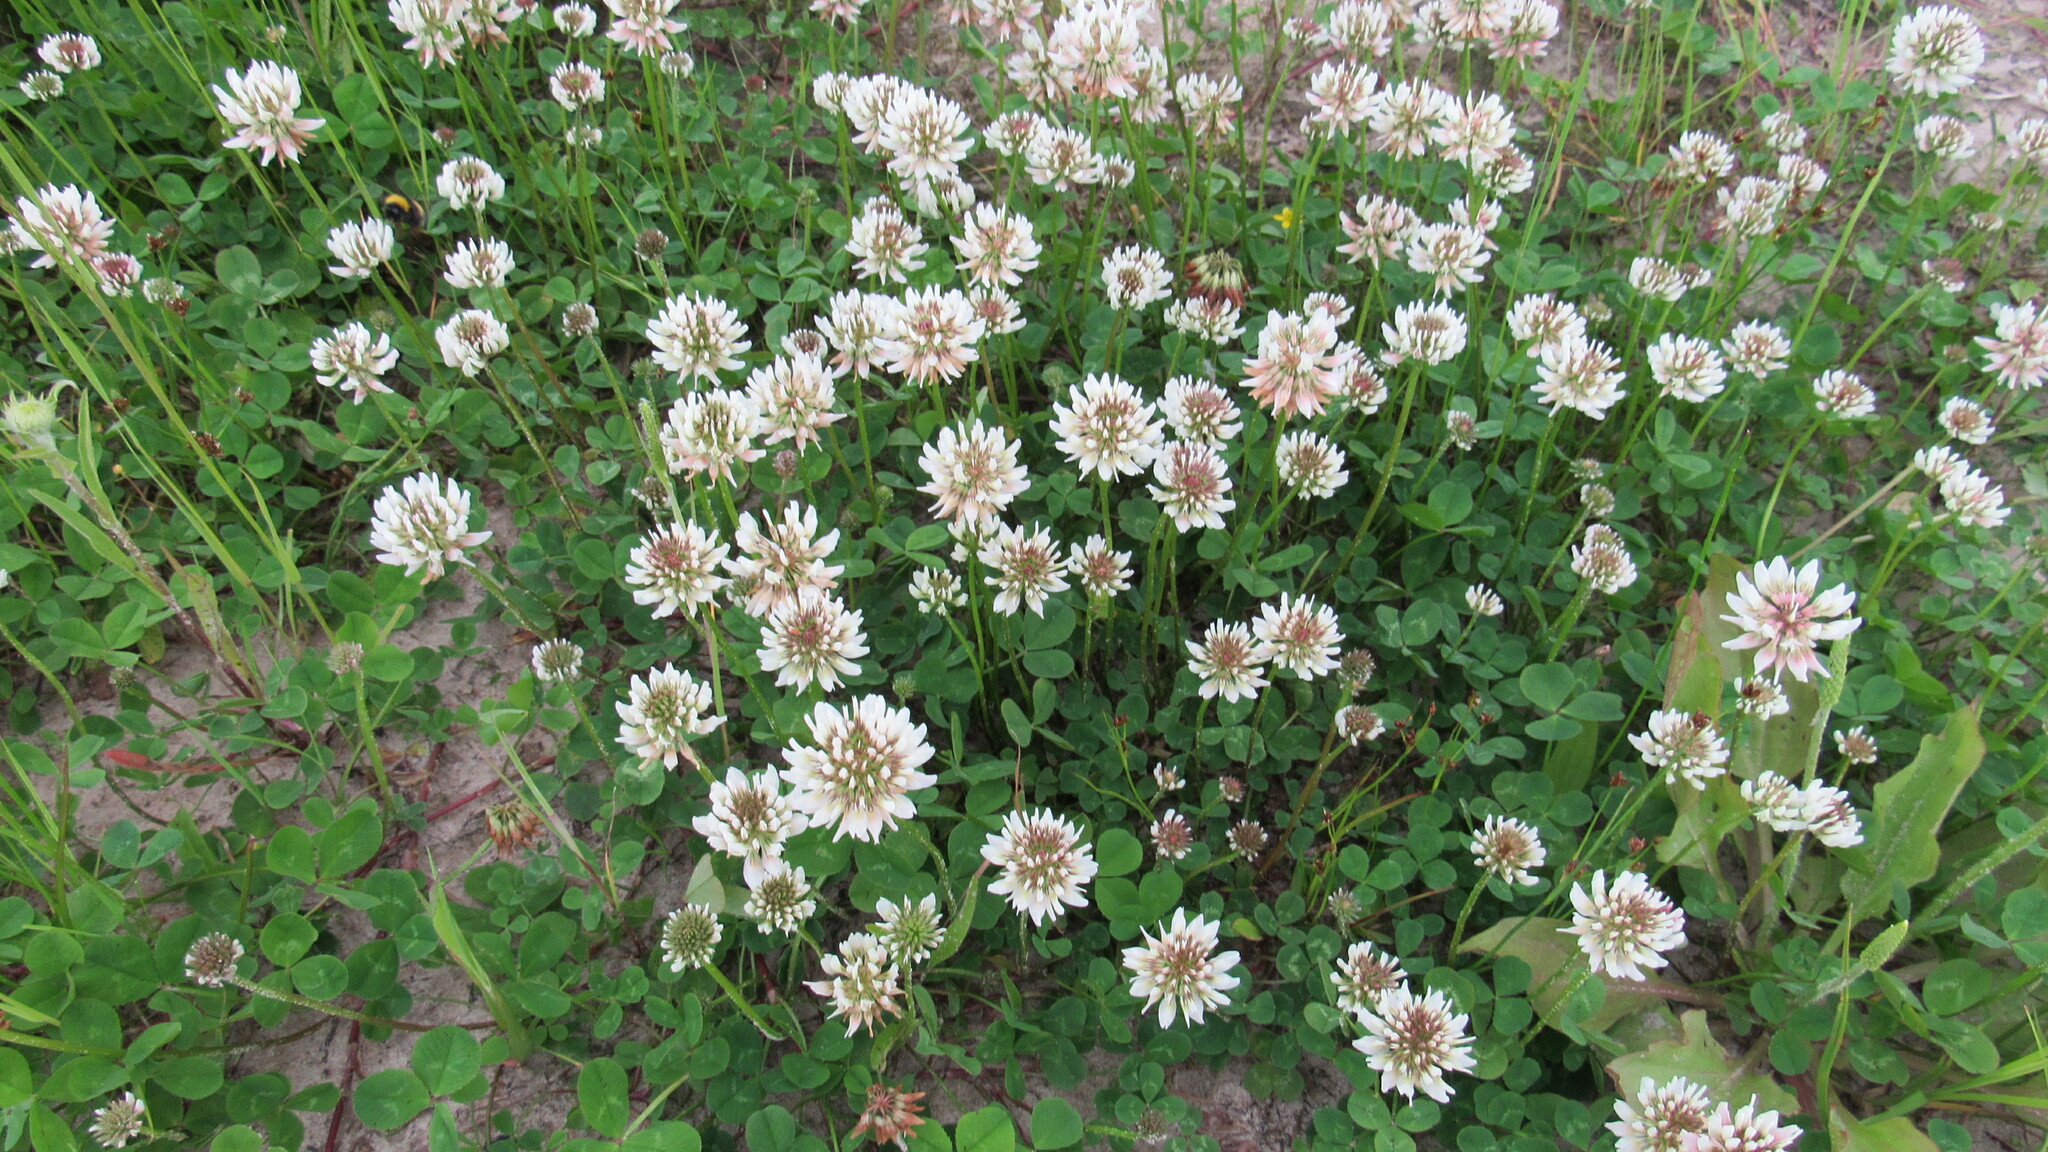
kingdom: Plantae
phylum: Tracheophyta
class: Magnoliopsida
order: Fabales
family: Fabaceae
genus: Trifolium
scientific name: Trifolium repens
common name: White clover
